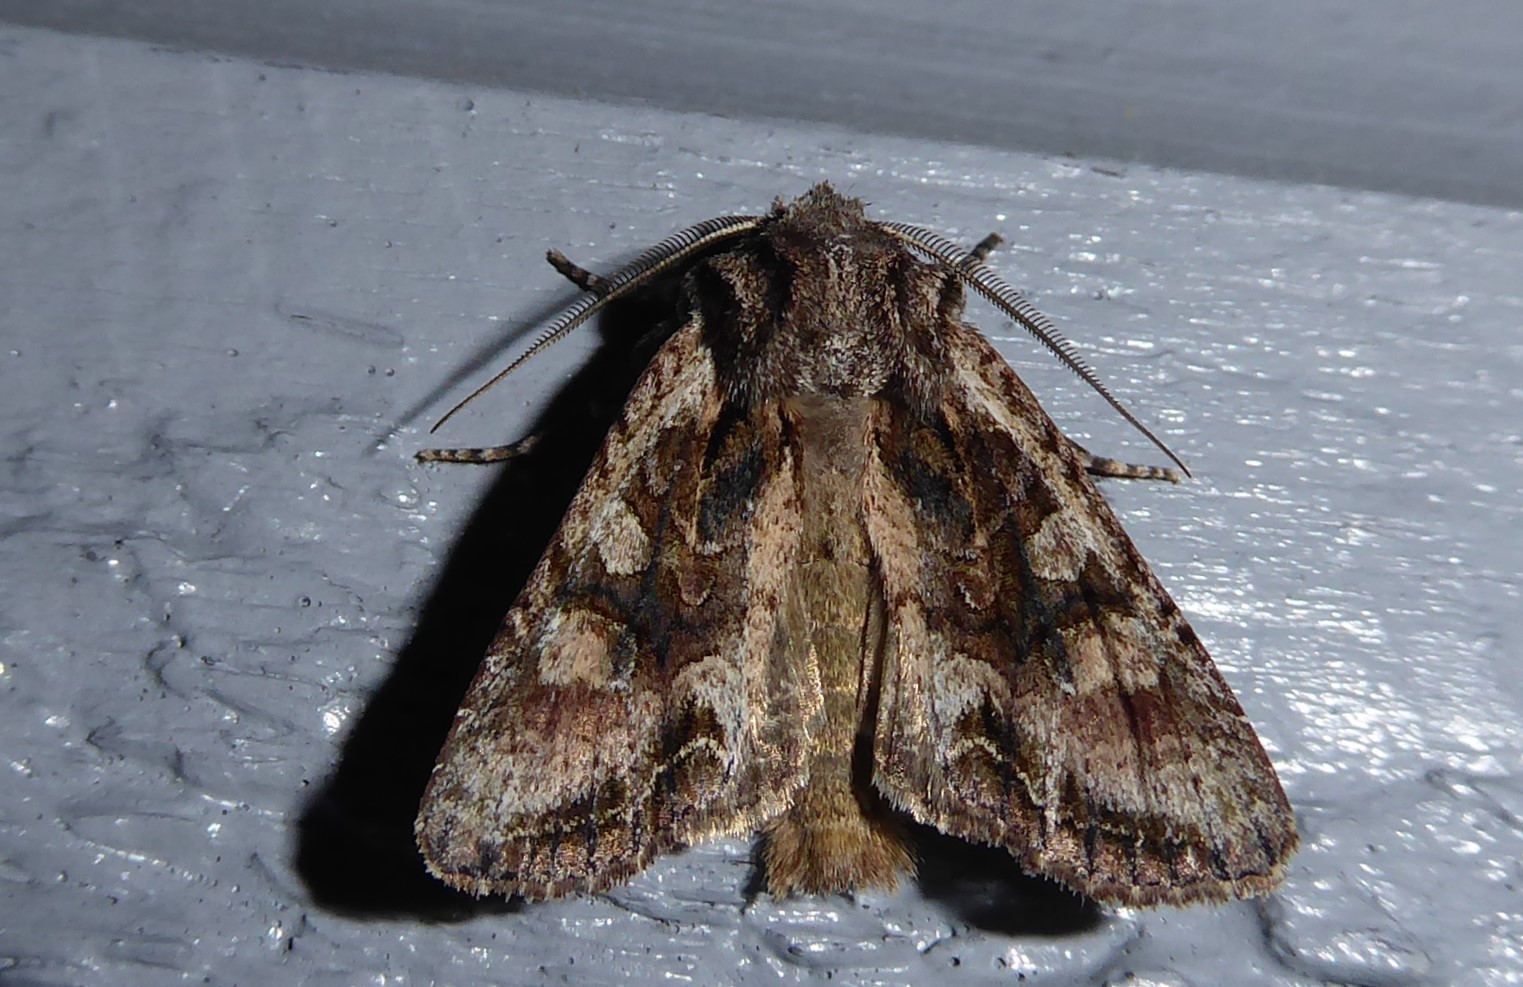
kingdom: Animalia
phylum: Arthropoda
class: Insecta
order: Lepidoptera
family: Noctuidae
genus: Ichneutica
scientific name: Ichneutica mutans
